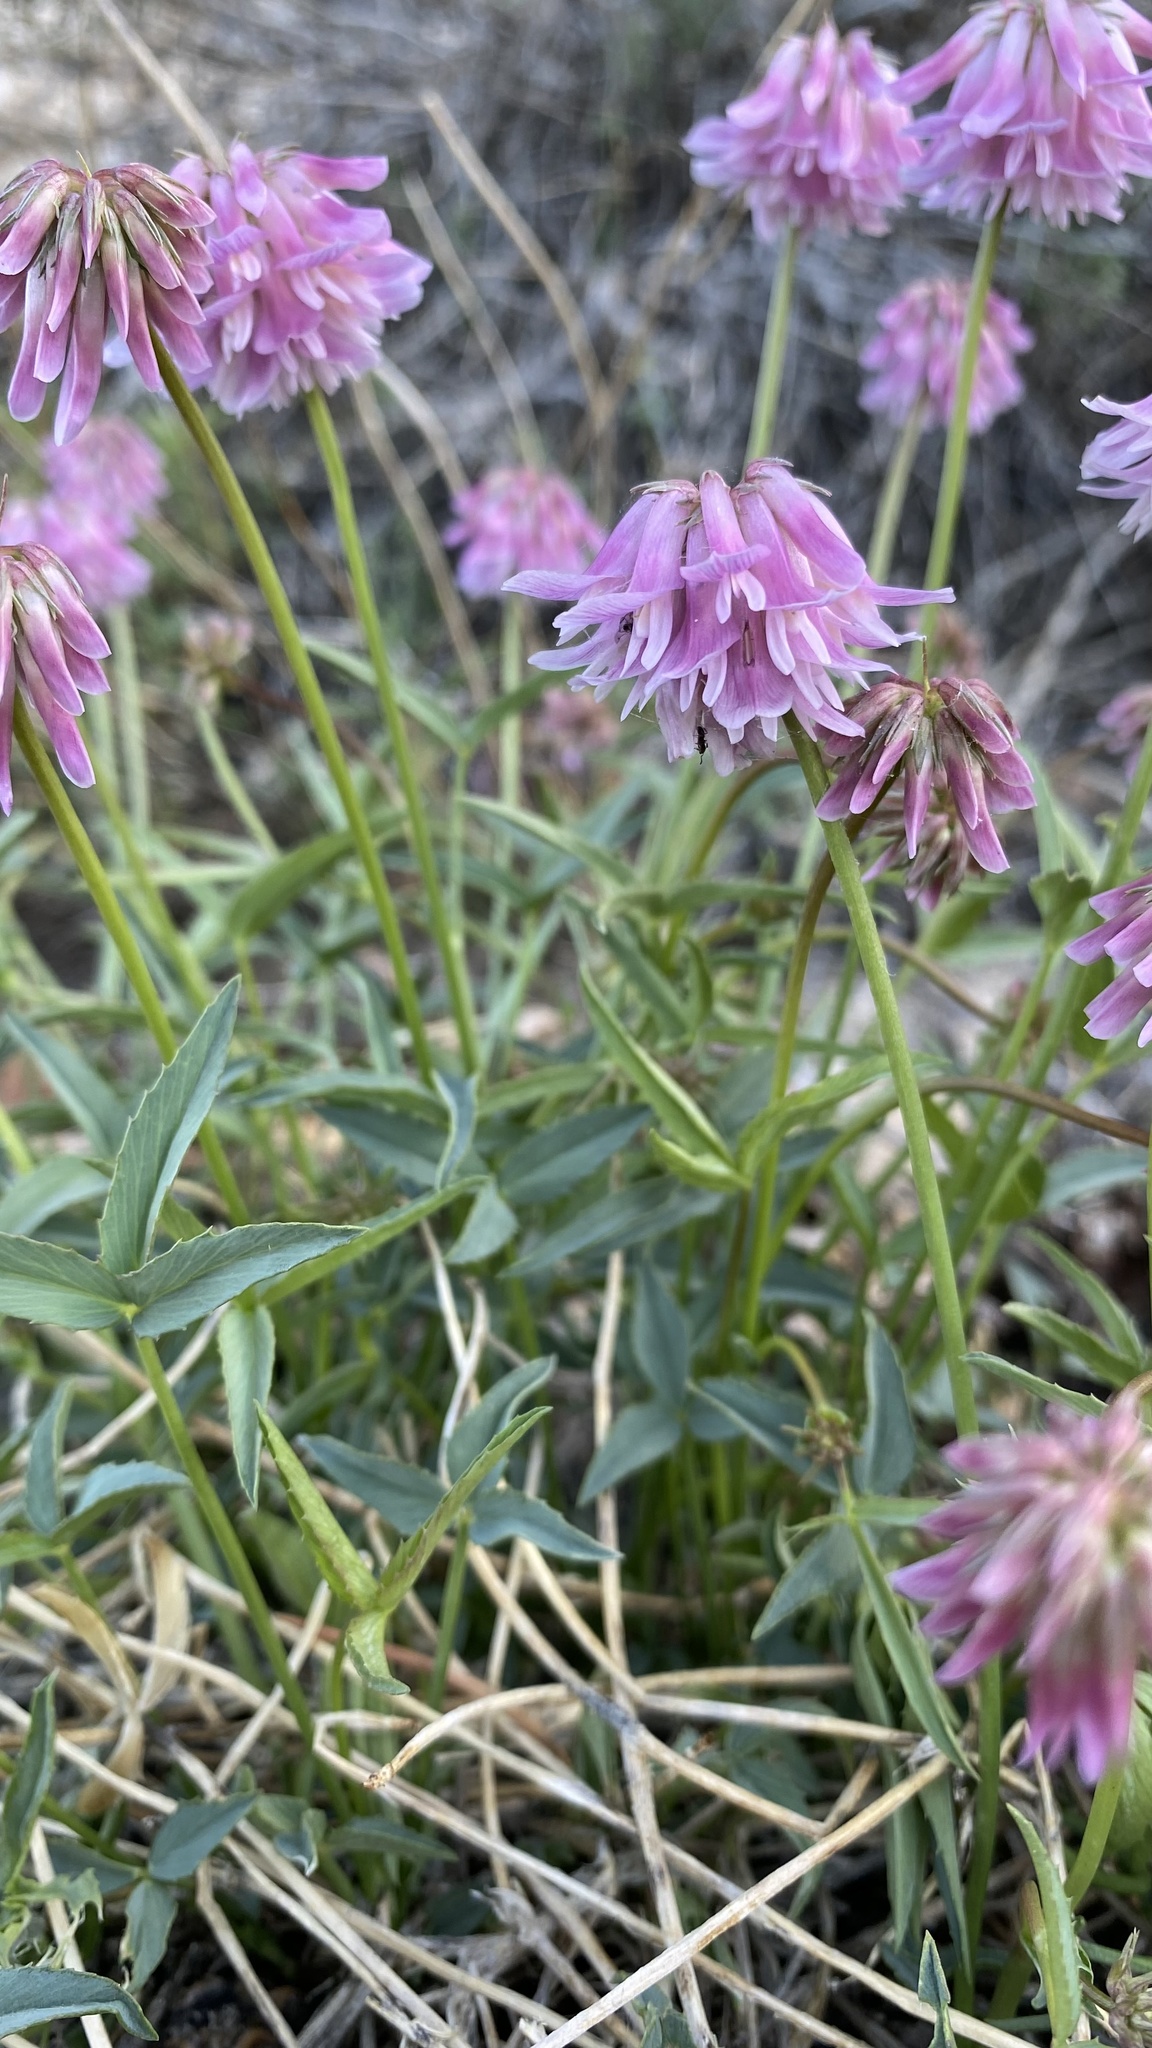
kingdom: Plantae
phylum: Tracheophyta
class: Magnoliopsida
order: Fabales
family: Fabaceae
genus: Trifolium
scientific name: Trifolium dedeckerae
